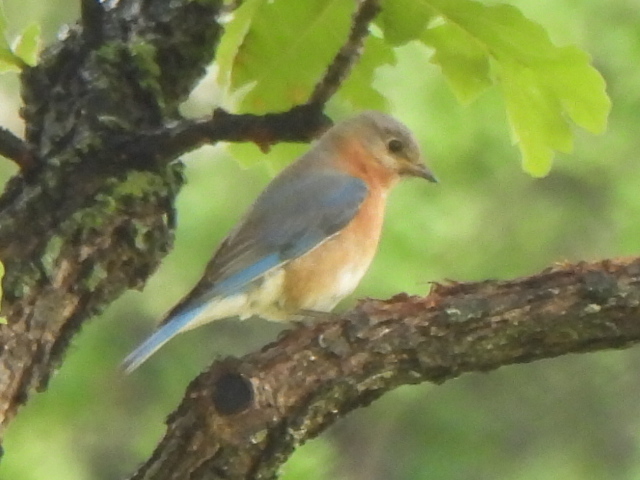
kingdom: Animalia
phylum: Chordata
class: Aves
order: Passeriformes
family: Turdidae
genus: Sialia
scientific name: Sialia sialis
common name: Eastern bluebird
